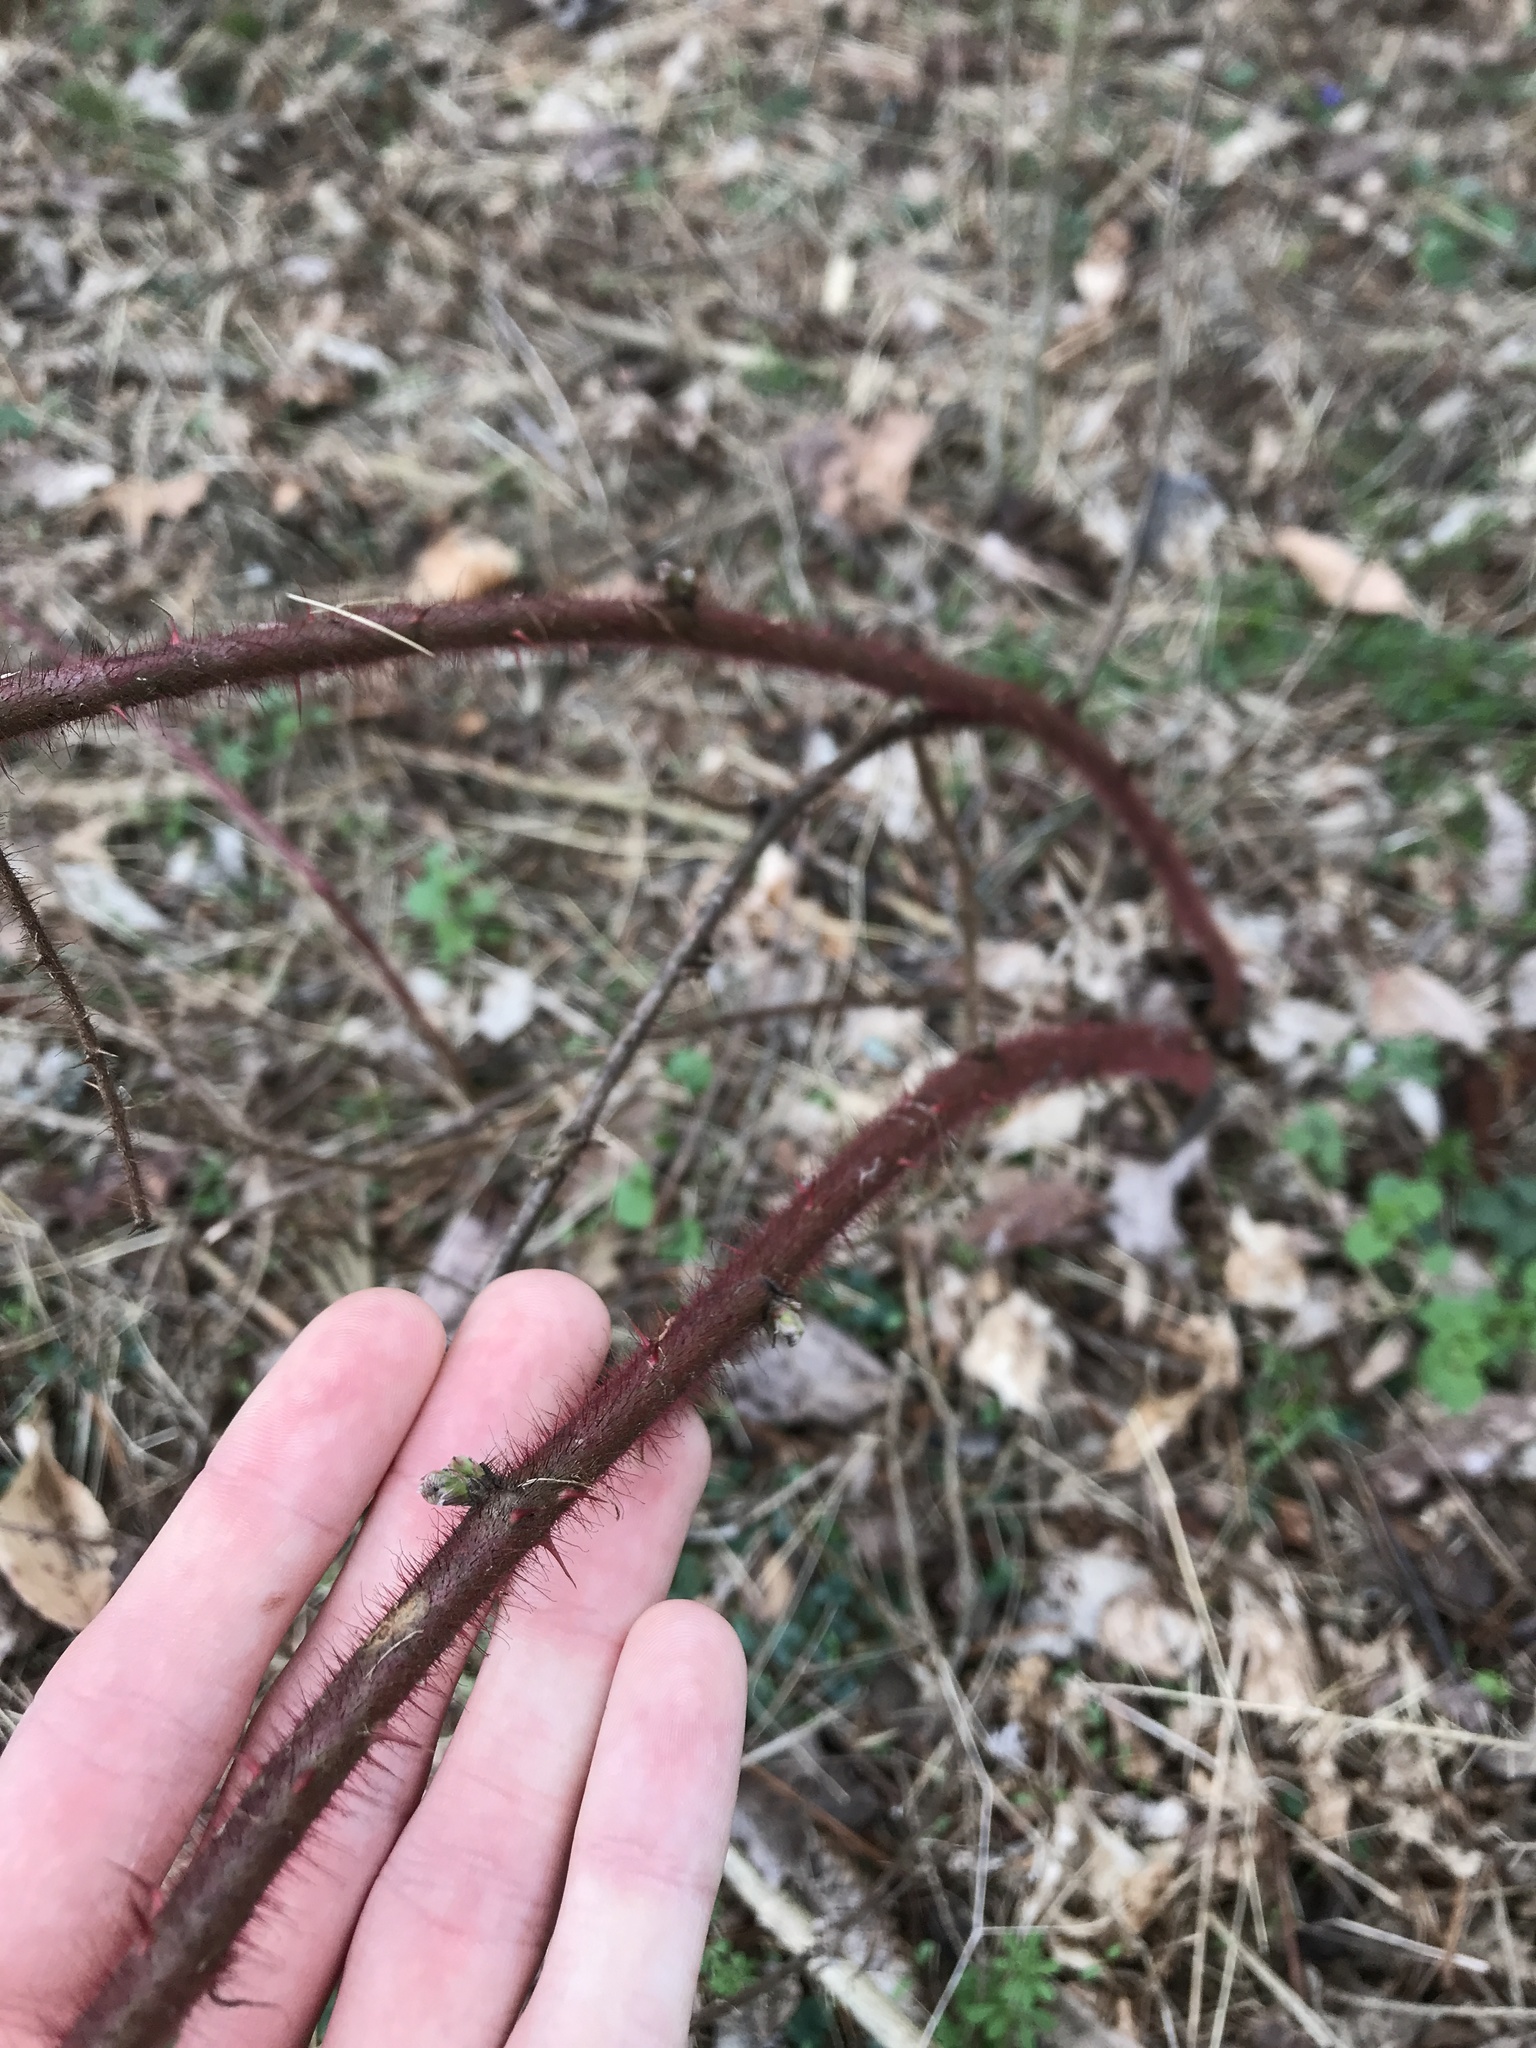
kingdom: Plantae
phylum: Tracheophyta
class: Magnoliopsida
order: Rosales
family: Rosaceae
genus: Rubus
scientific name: Rubus phoenicolasius
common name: Japanese wineberry
